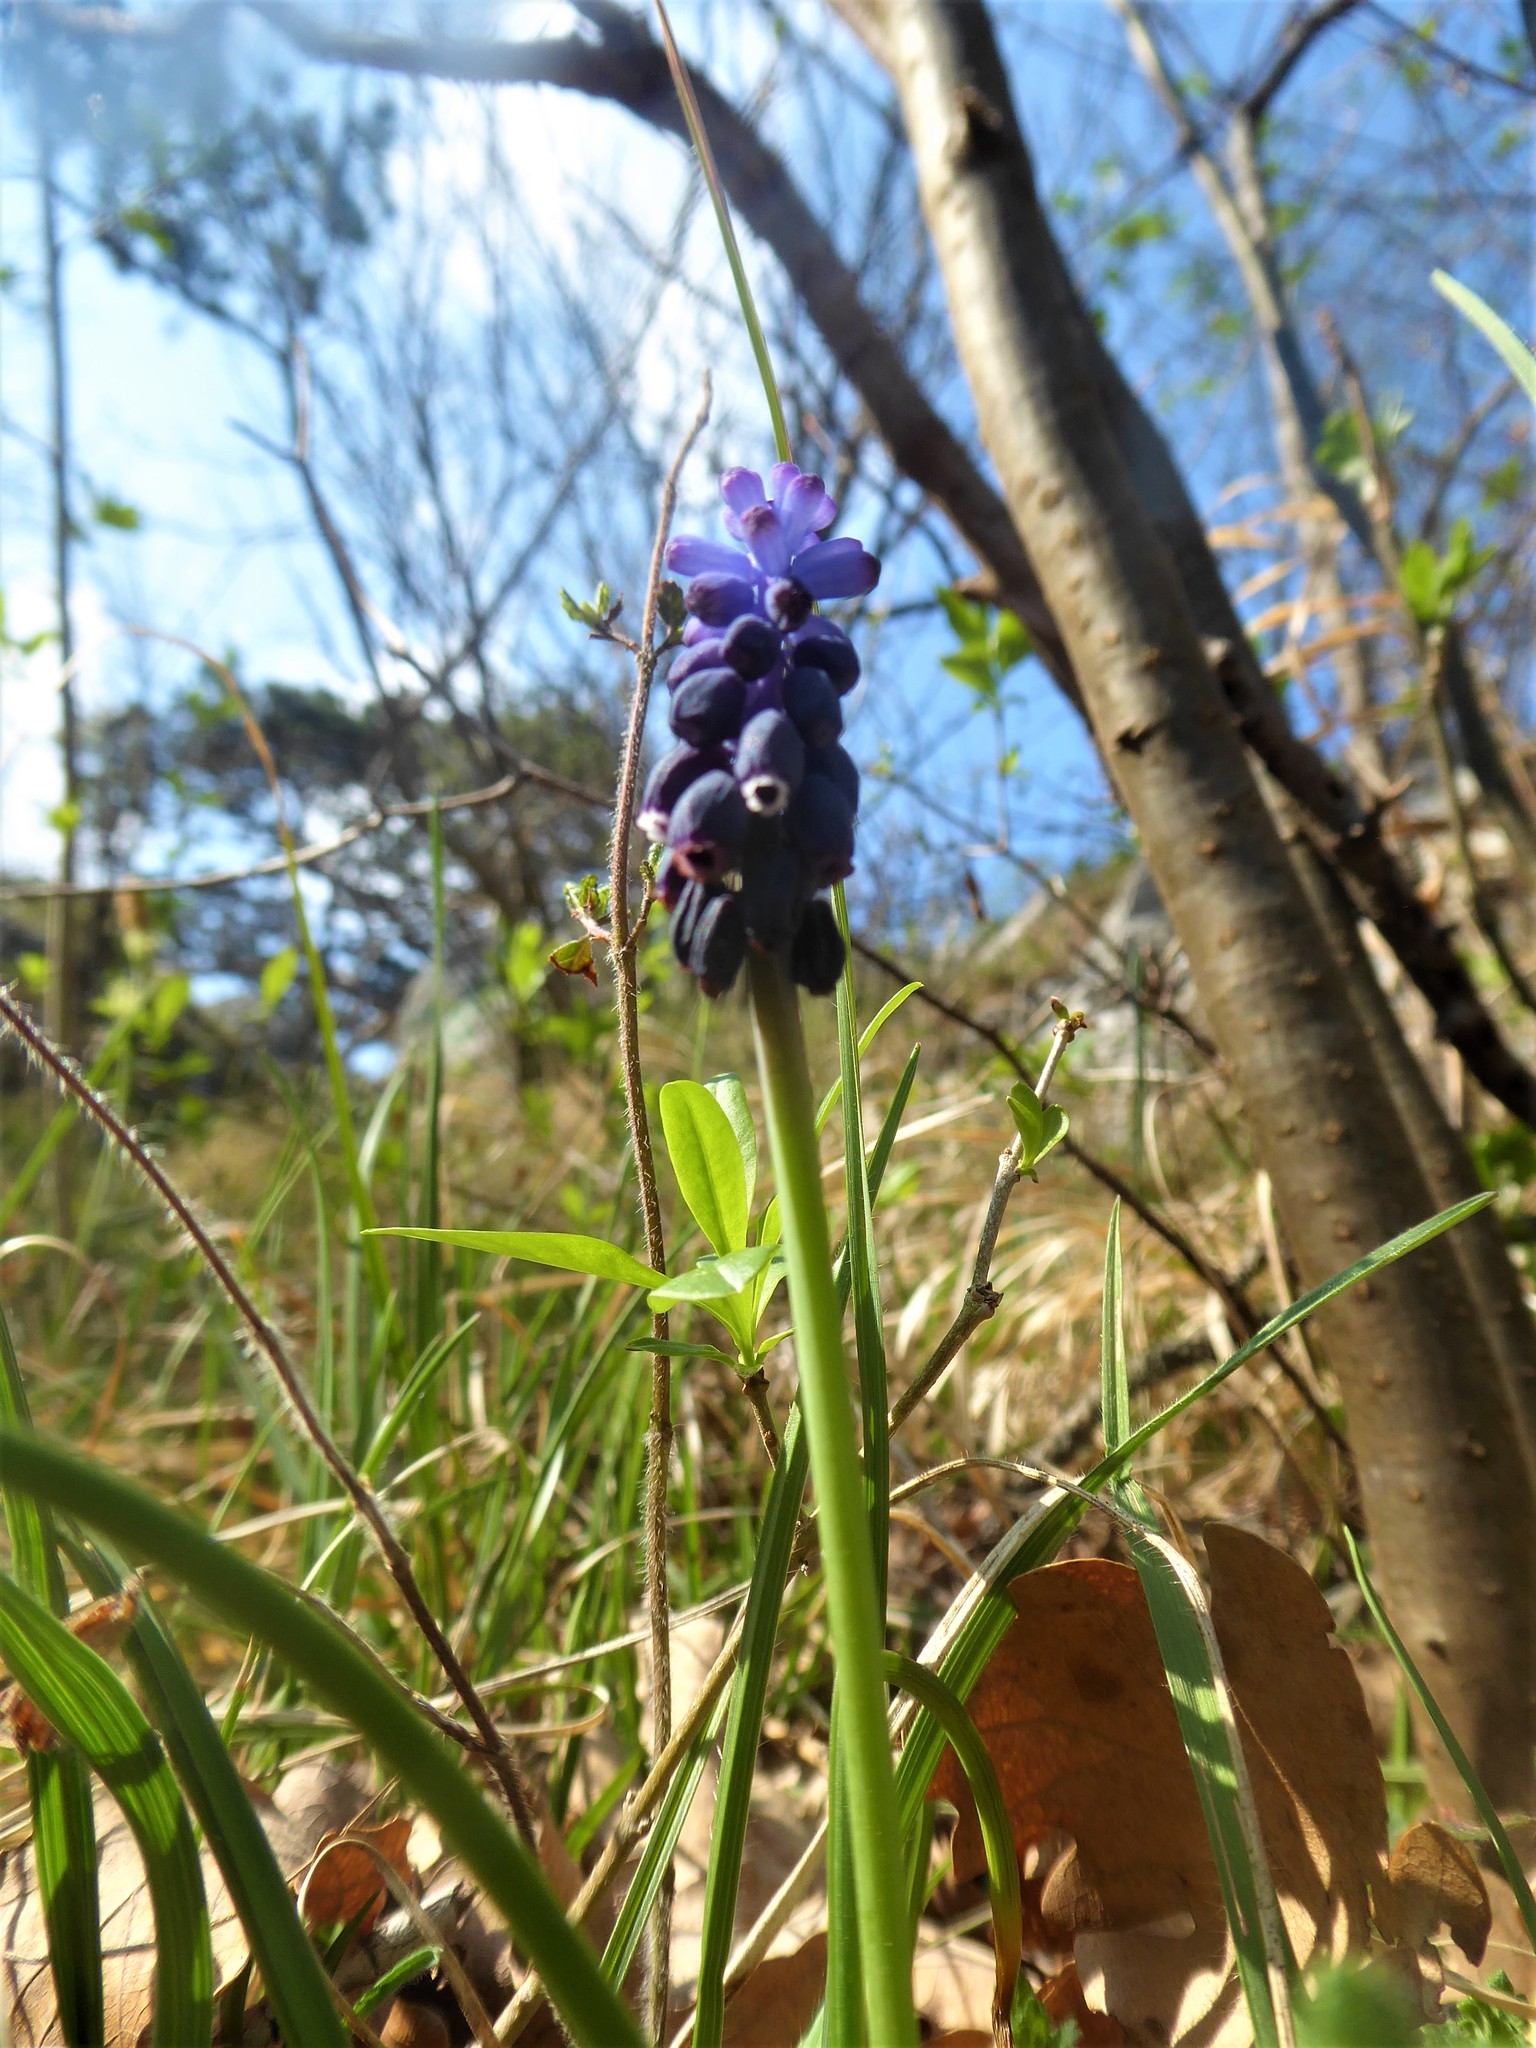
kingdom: Plantae
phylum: Tracheophyta
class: Liliopsida
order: Asparagales
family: Asparagaceae
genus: Muscari
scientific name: Muscari neglectum
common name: Grape-hyacinth
